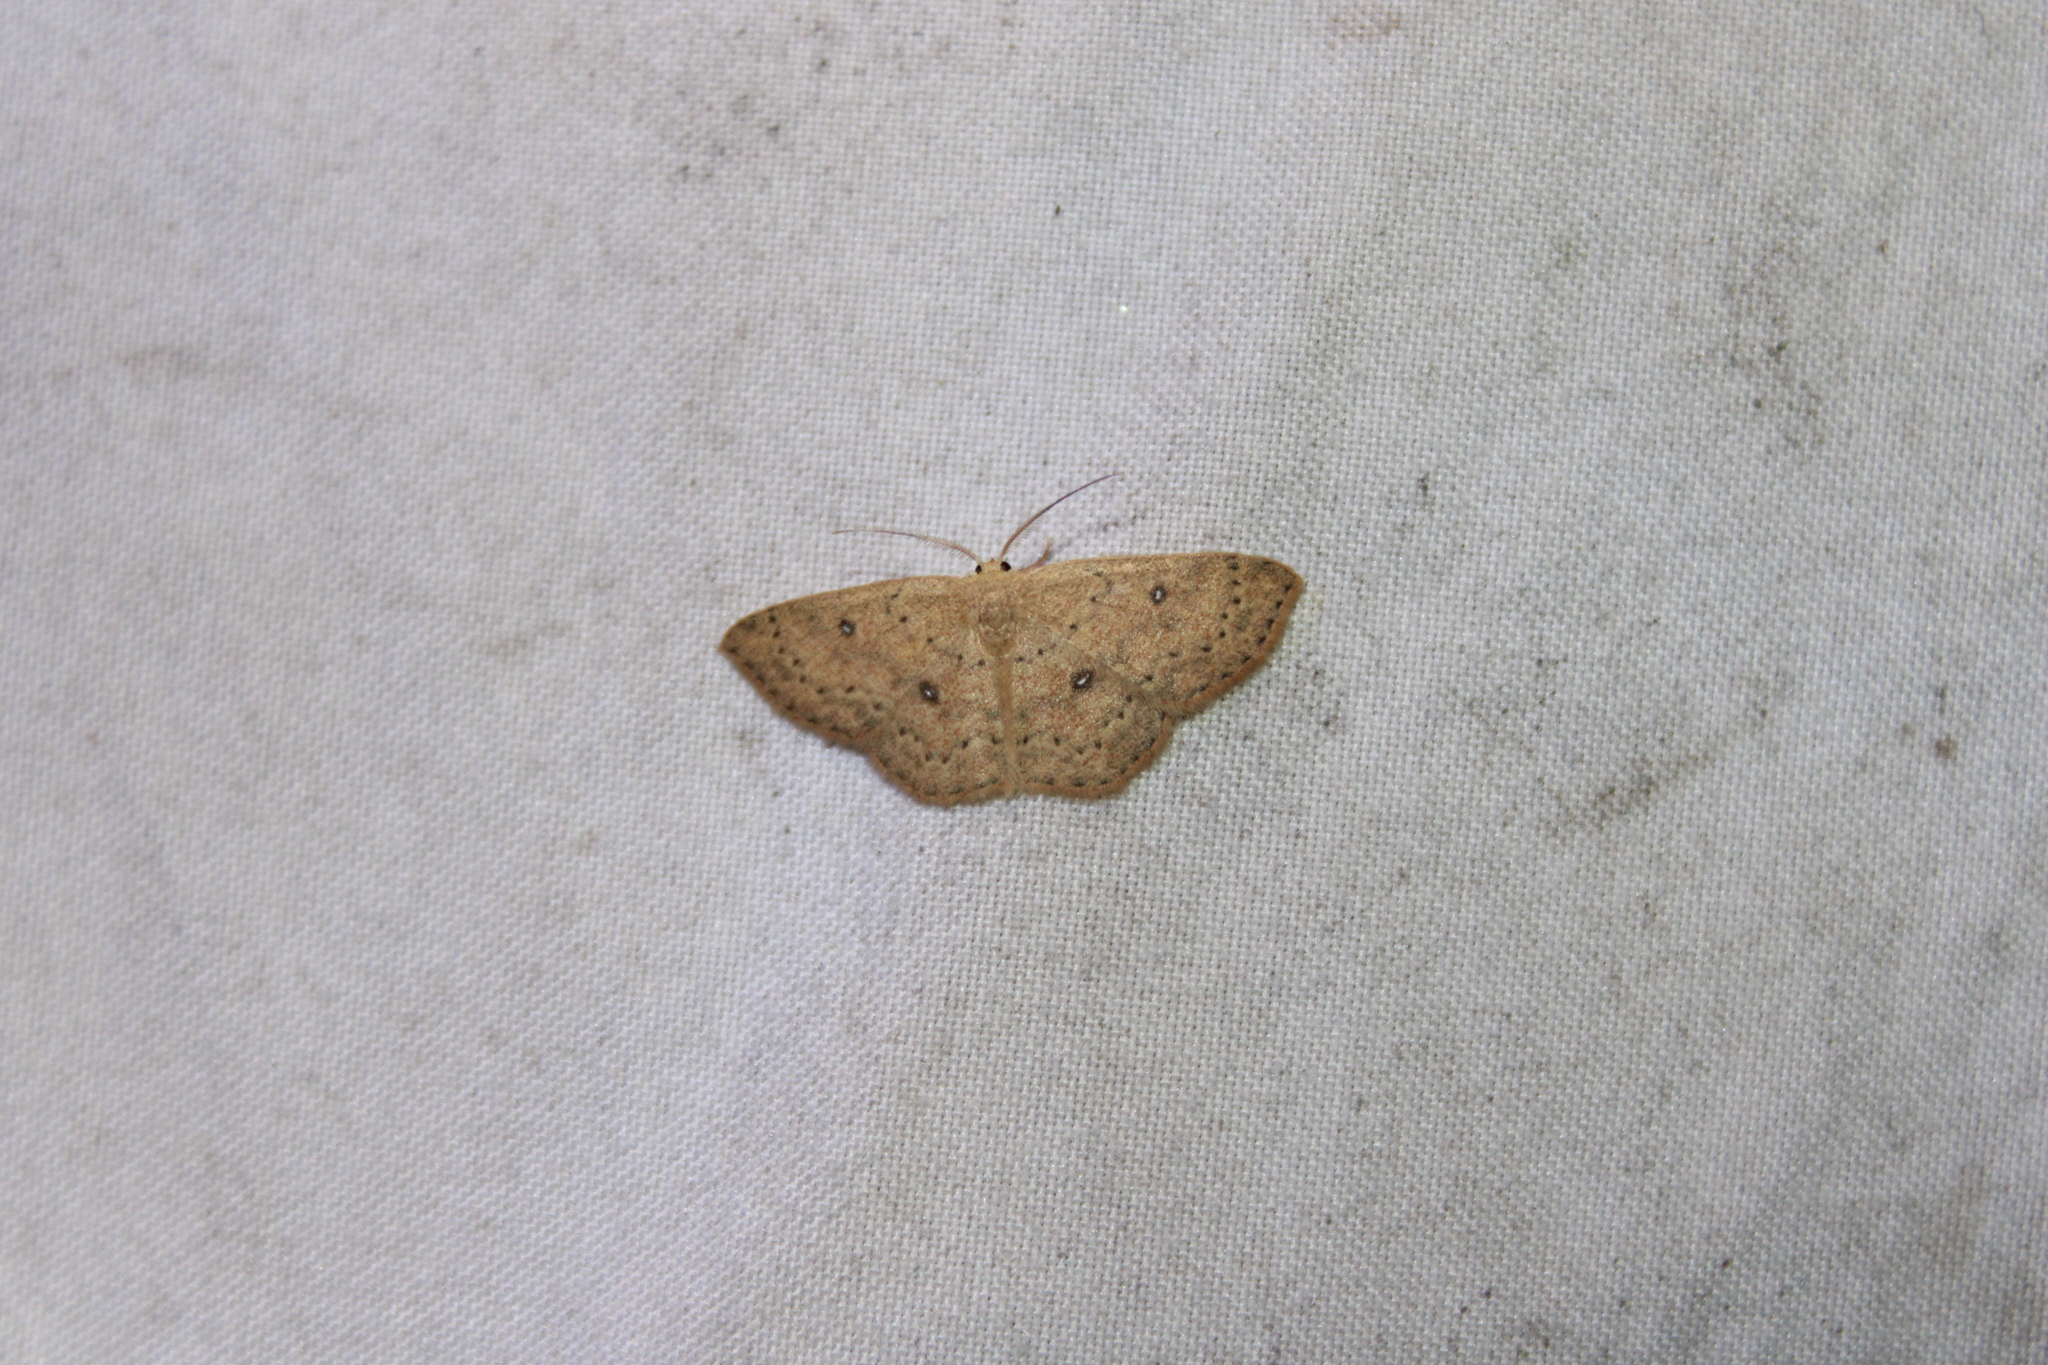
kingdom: Animalia
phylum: Arthropoda
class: Insecta
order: Lepidoptera
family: Geometridae
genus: Cyclophora
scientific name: Cyclophora packardi
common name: Packard's wave
